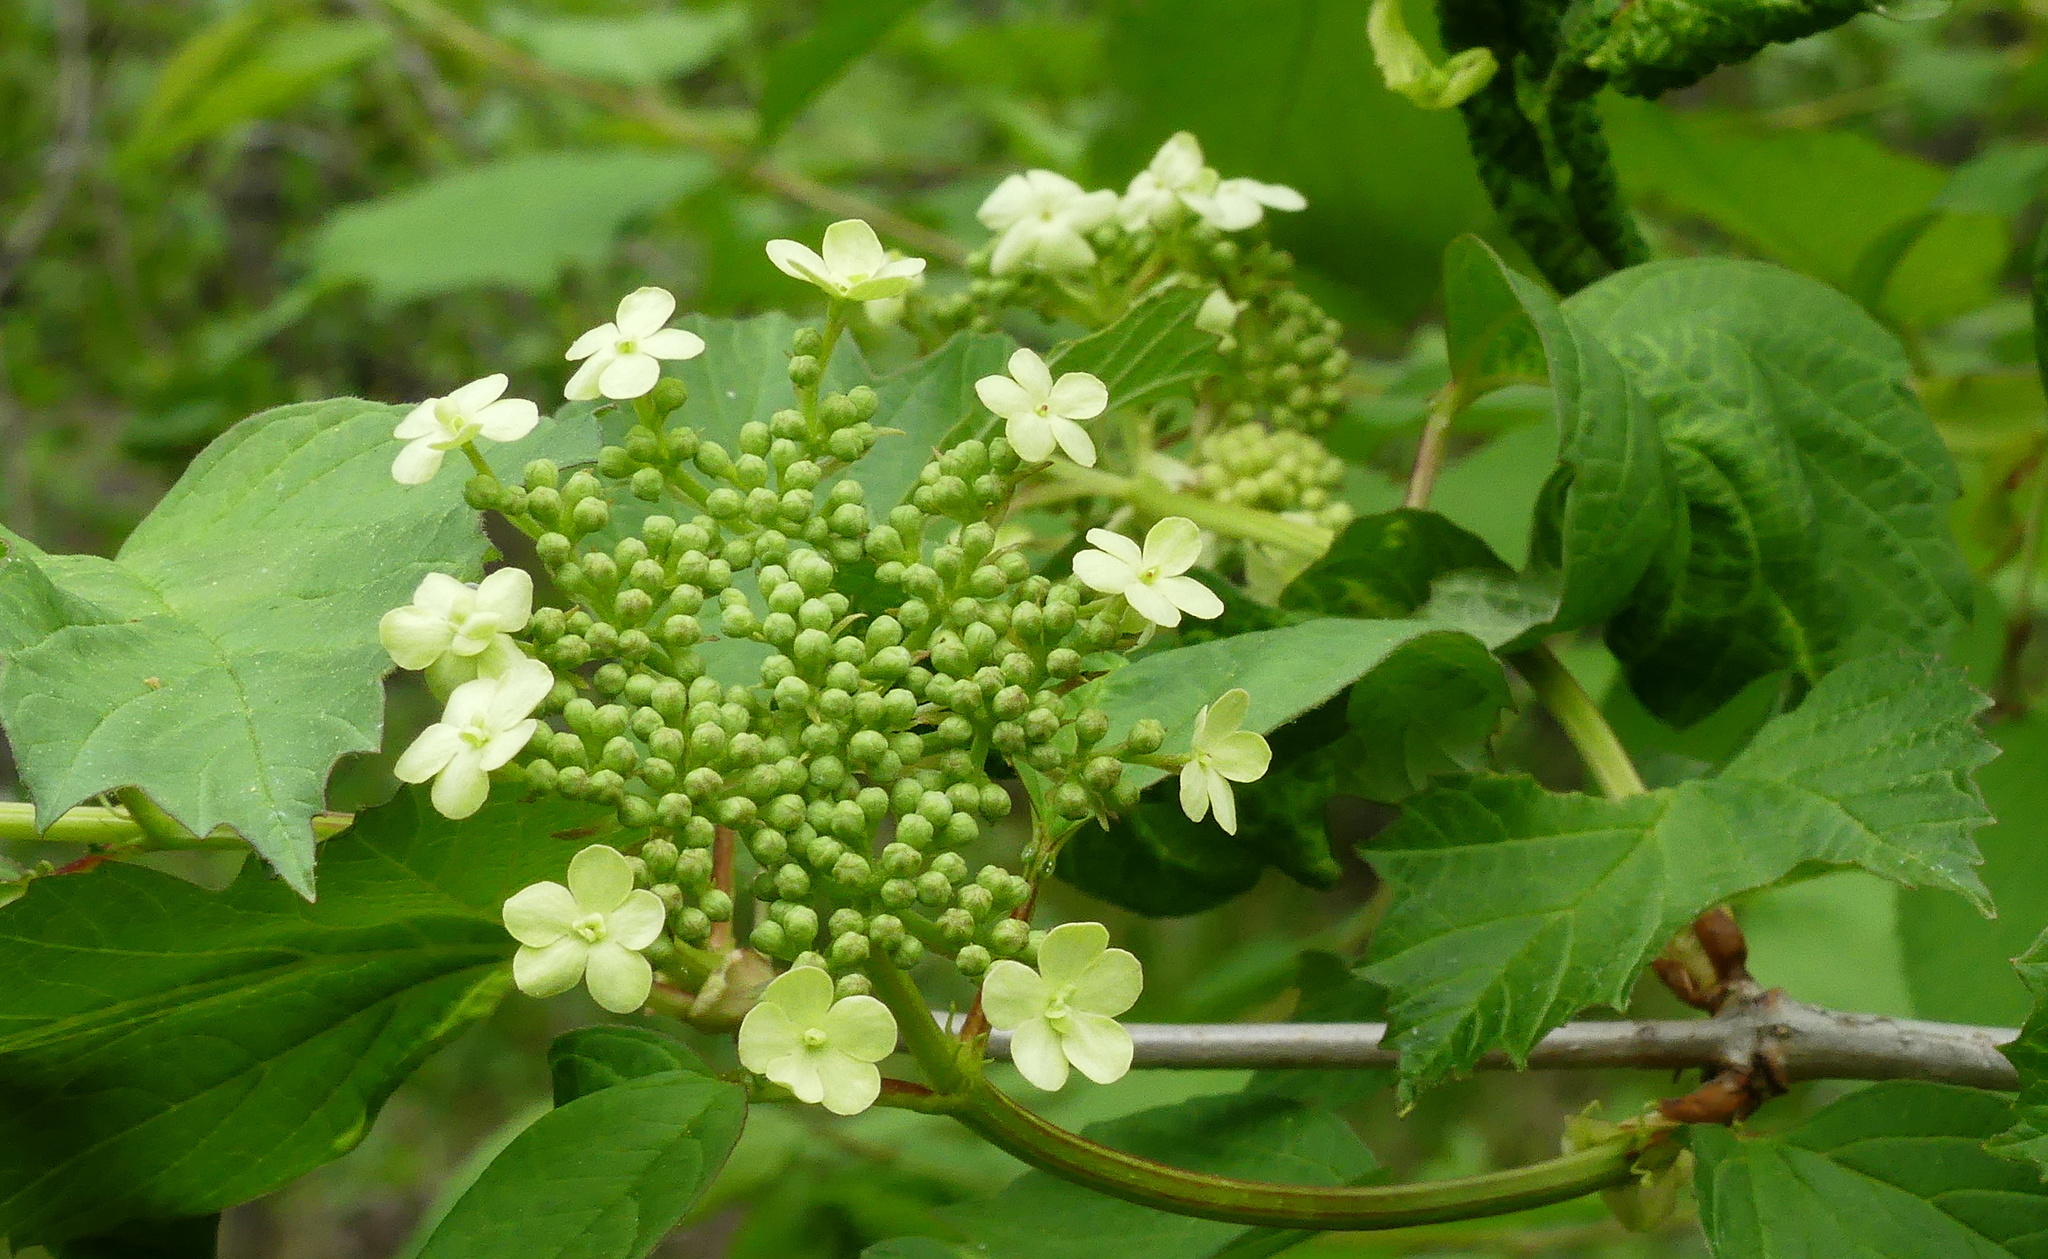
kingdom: Plantae
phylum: Tracheophyta
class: Magnoliopsida
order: Dipsacales
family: Viburnaceae
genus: Viburnum
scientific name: Viburnum opulus
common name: Guelder-rose
